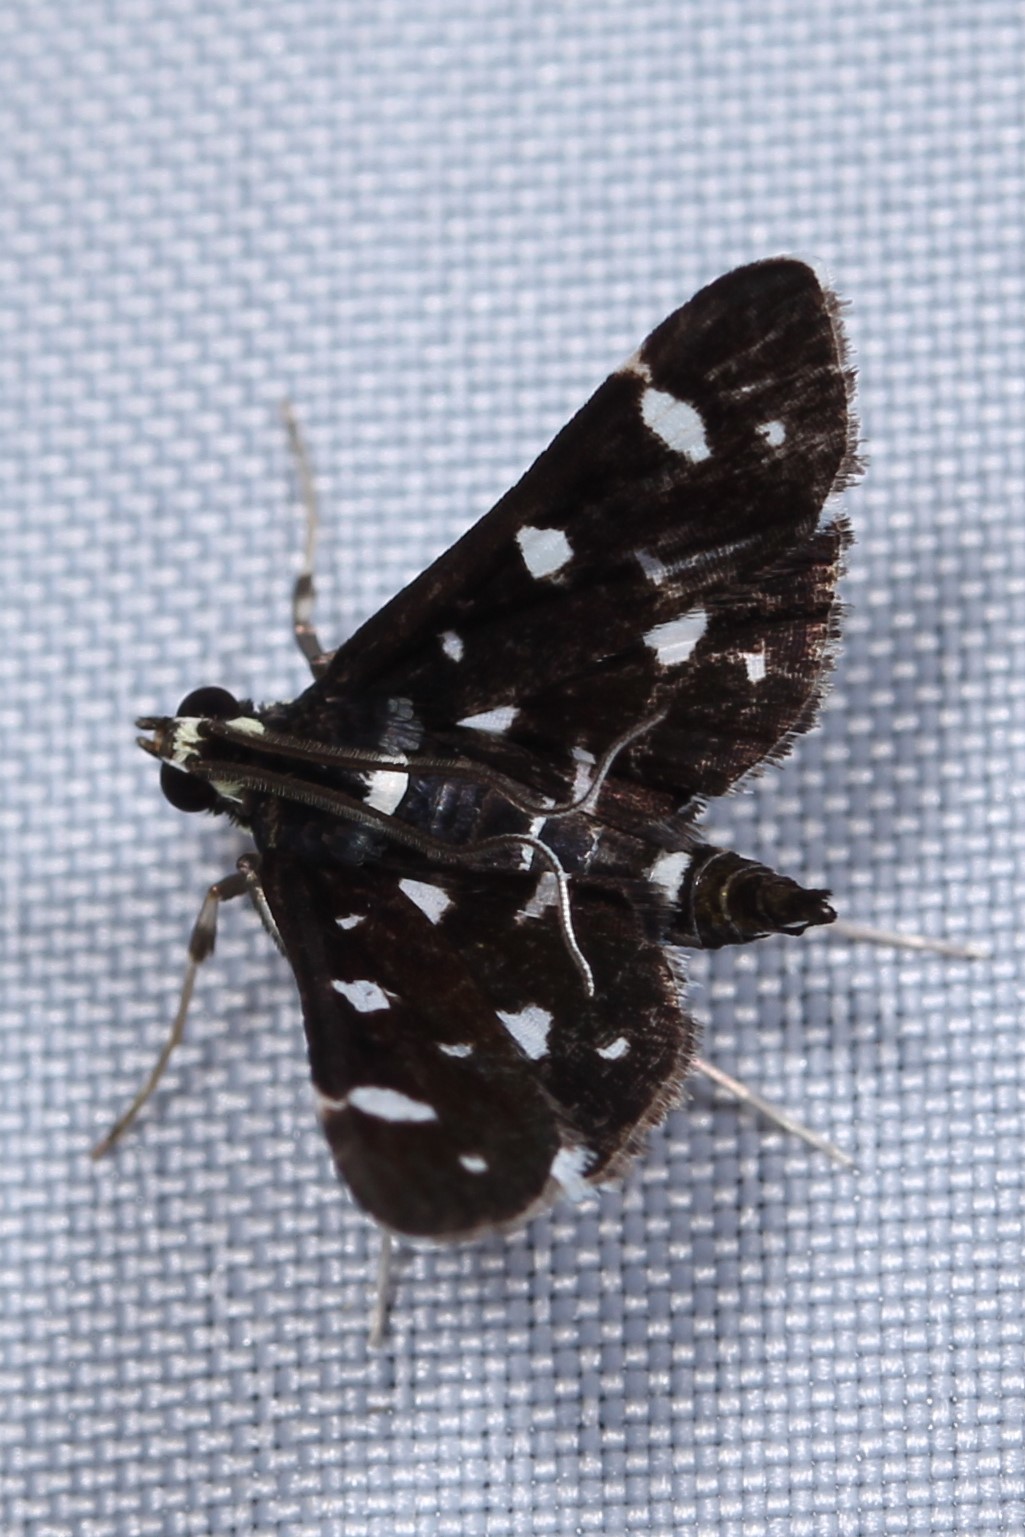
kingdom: Animalia
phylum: Arthropoda
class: Insecta
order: Lepidoptera
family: Crambidae
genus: Bocchoris
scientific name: Bocchoris inspersalis
